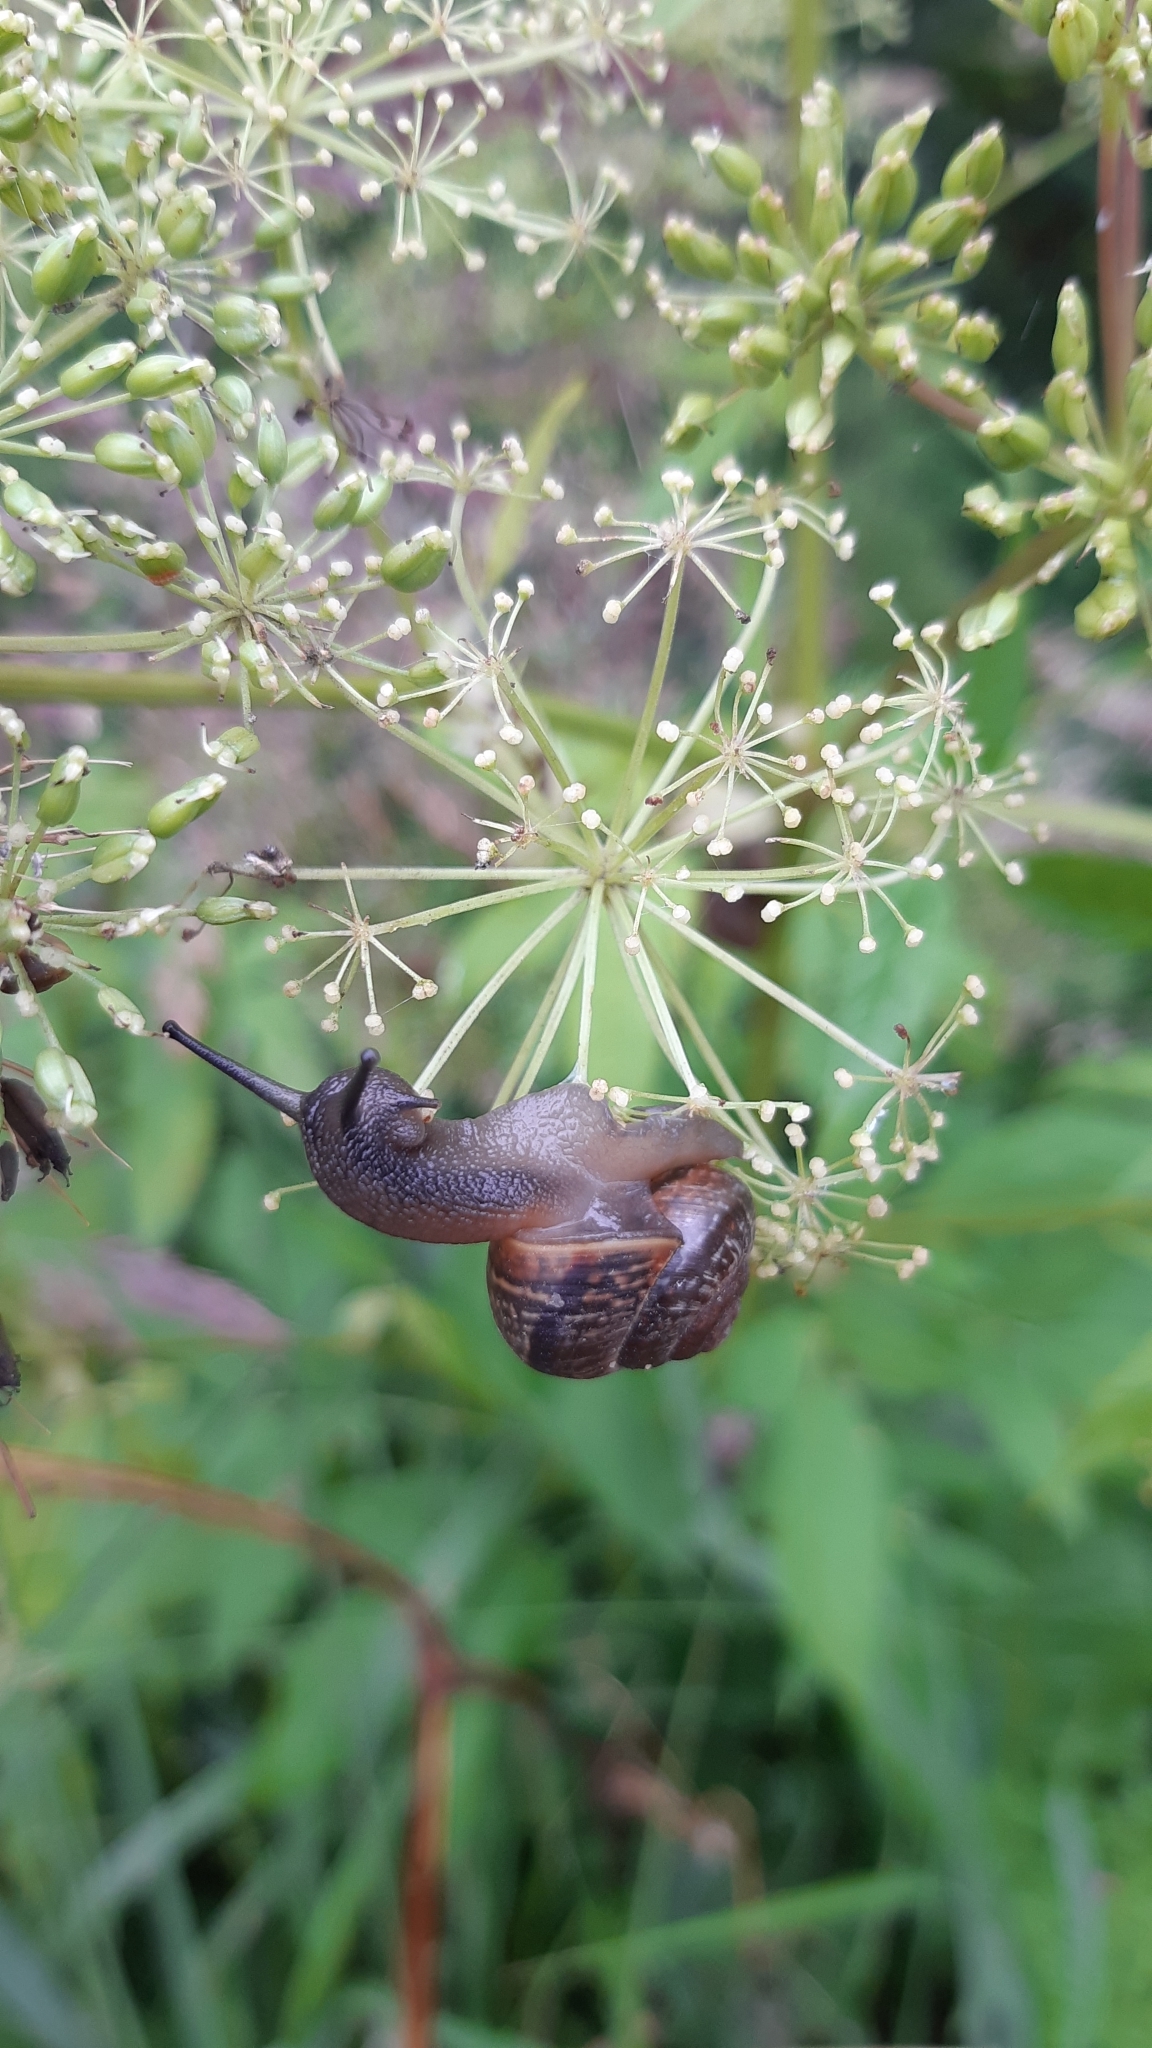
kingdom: Animalia
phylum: Mollusca
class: Gastropoda
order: Stylommatophora
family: Helicidae
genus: Arianta
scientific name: Arianta arbustorum
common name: Copse snail
